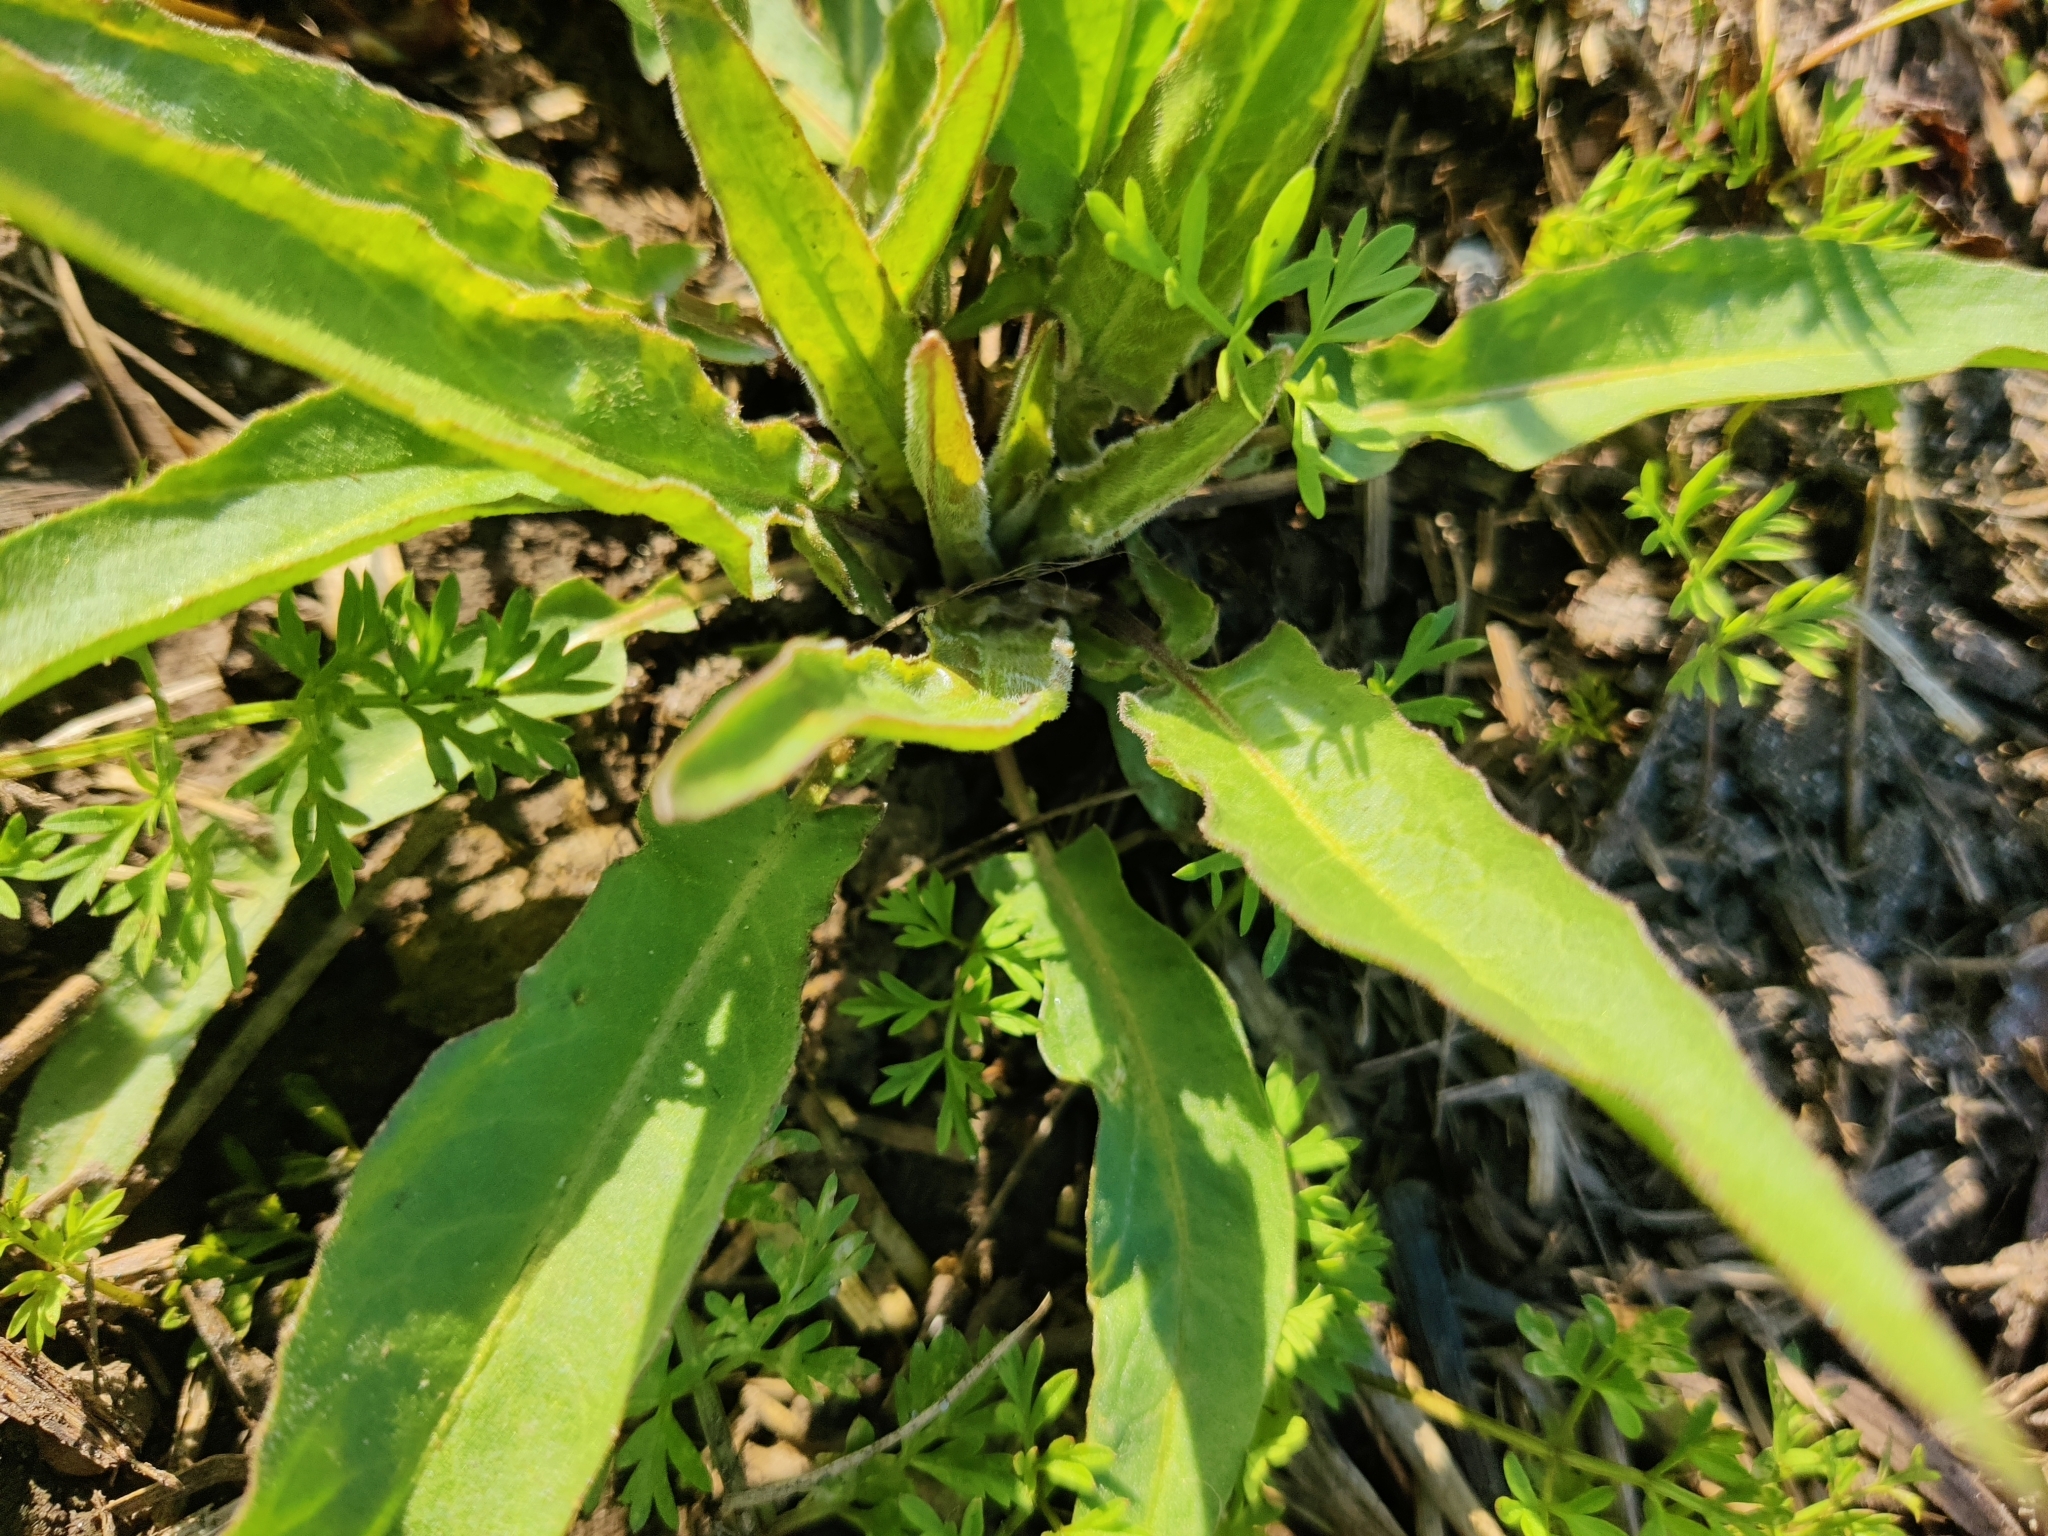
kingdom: Plantae
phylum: Tracheophyta
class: Magnoliopsida
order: Brassicales
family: Brassicaceae
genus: Bunias
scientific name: Bunias orientalis
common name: Warty-cabbage
